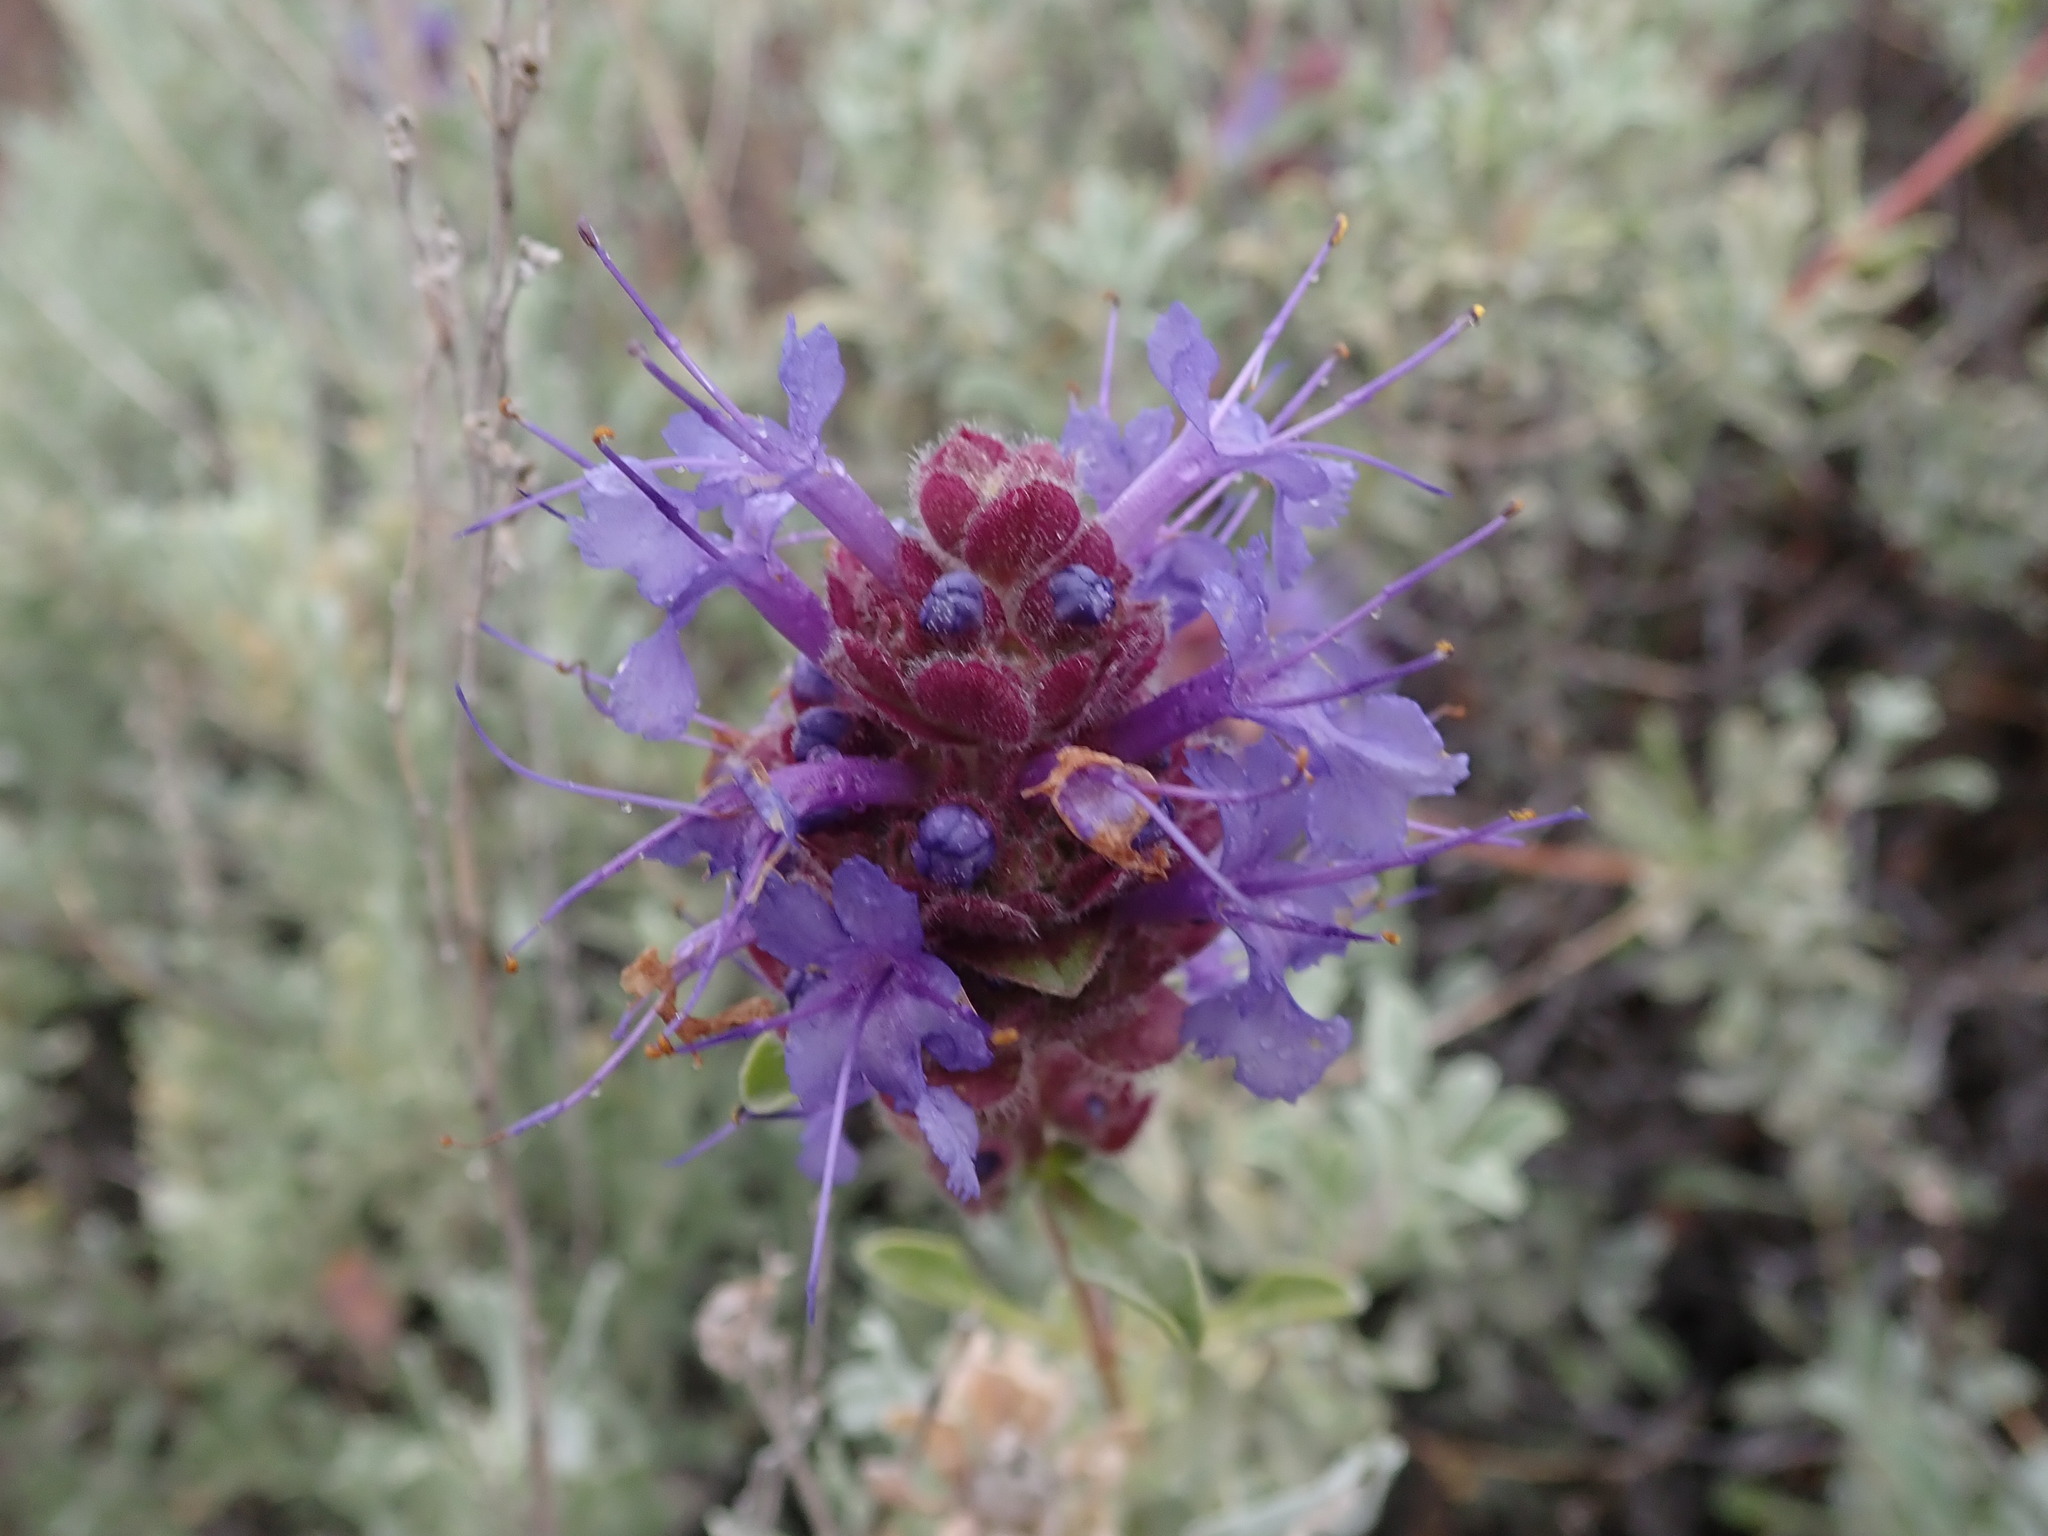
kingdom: Plantae
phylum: Tracheophyta
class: Magnoliopsida
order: Lamiales
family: Lamiaceae
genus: Salvia
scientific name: Salvia dorrii
